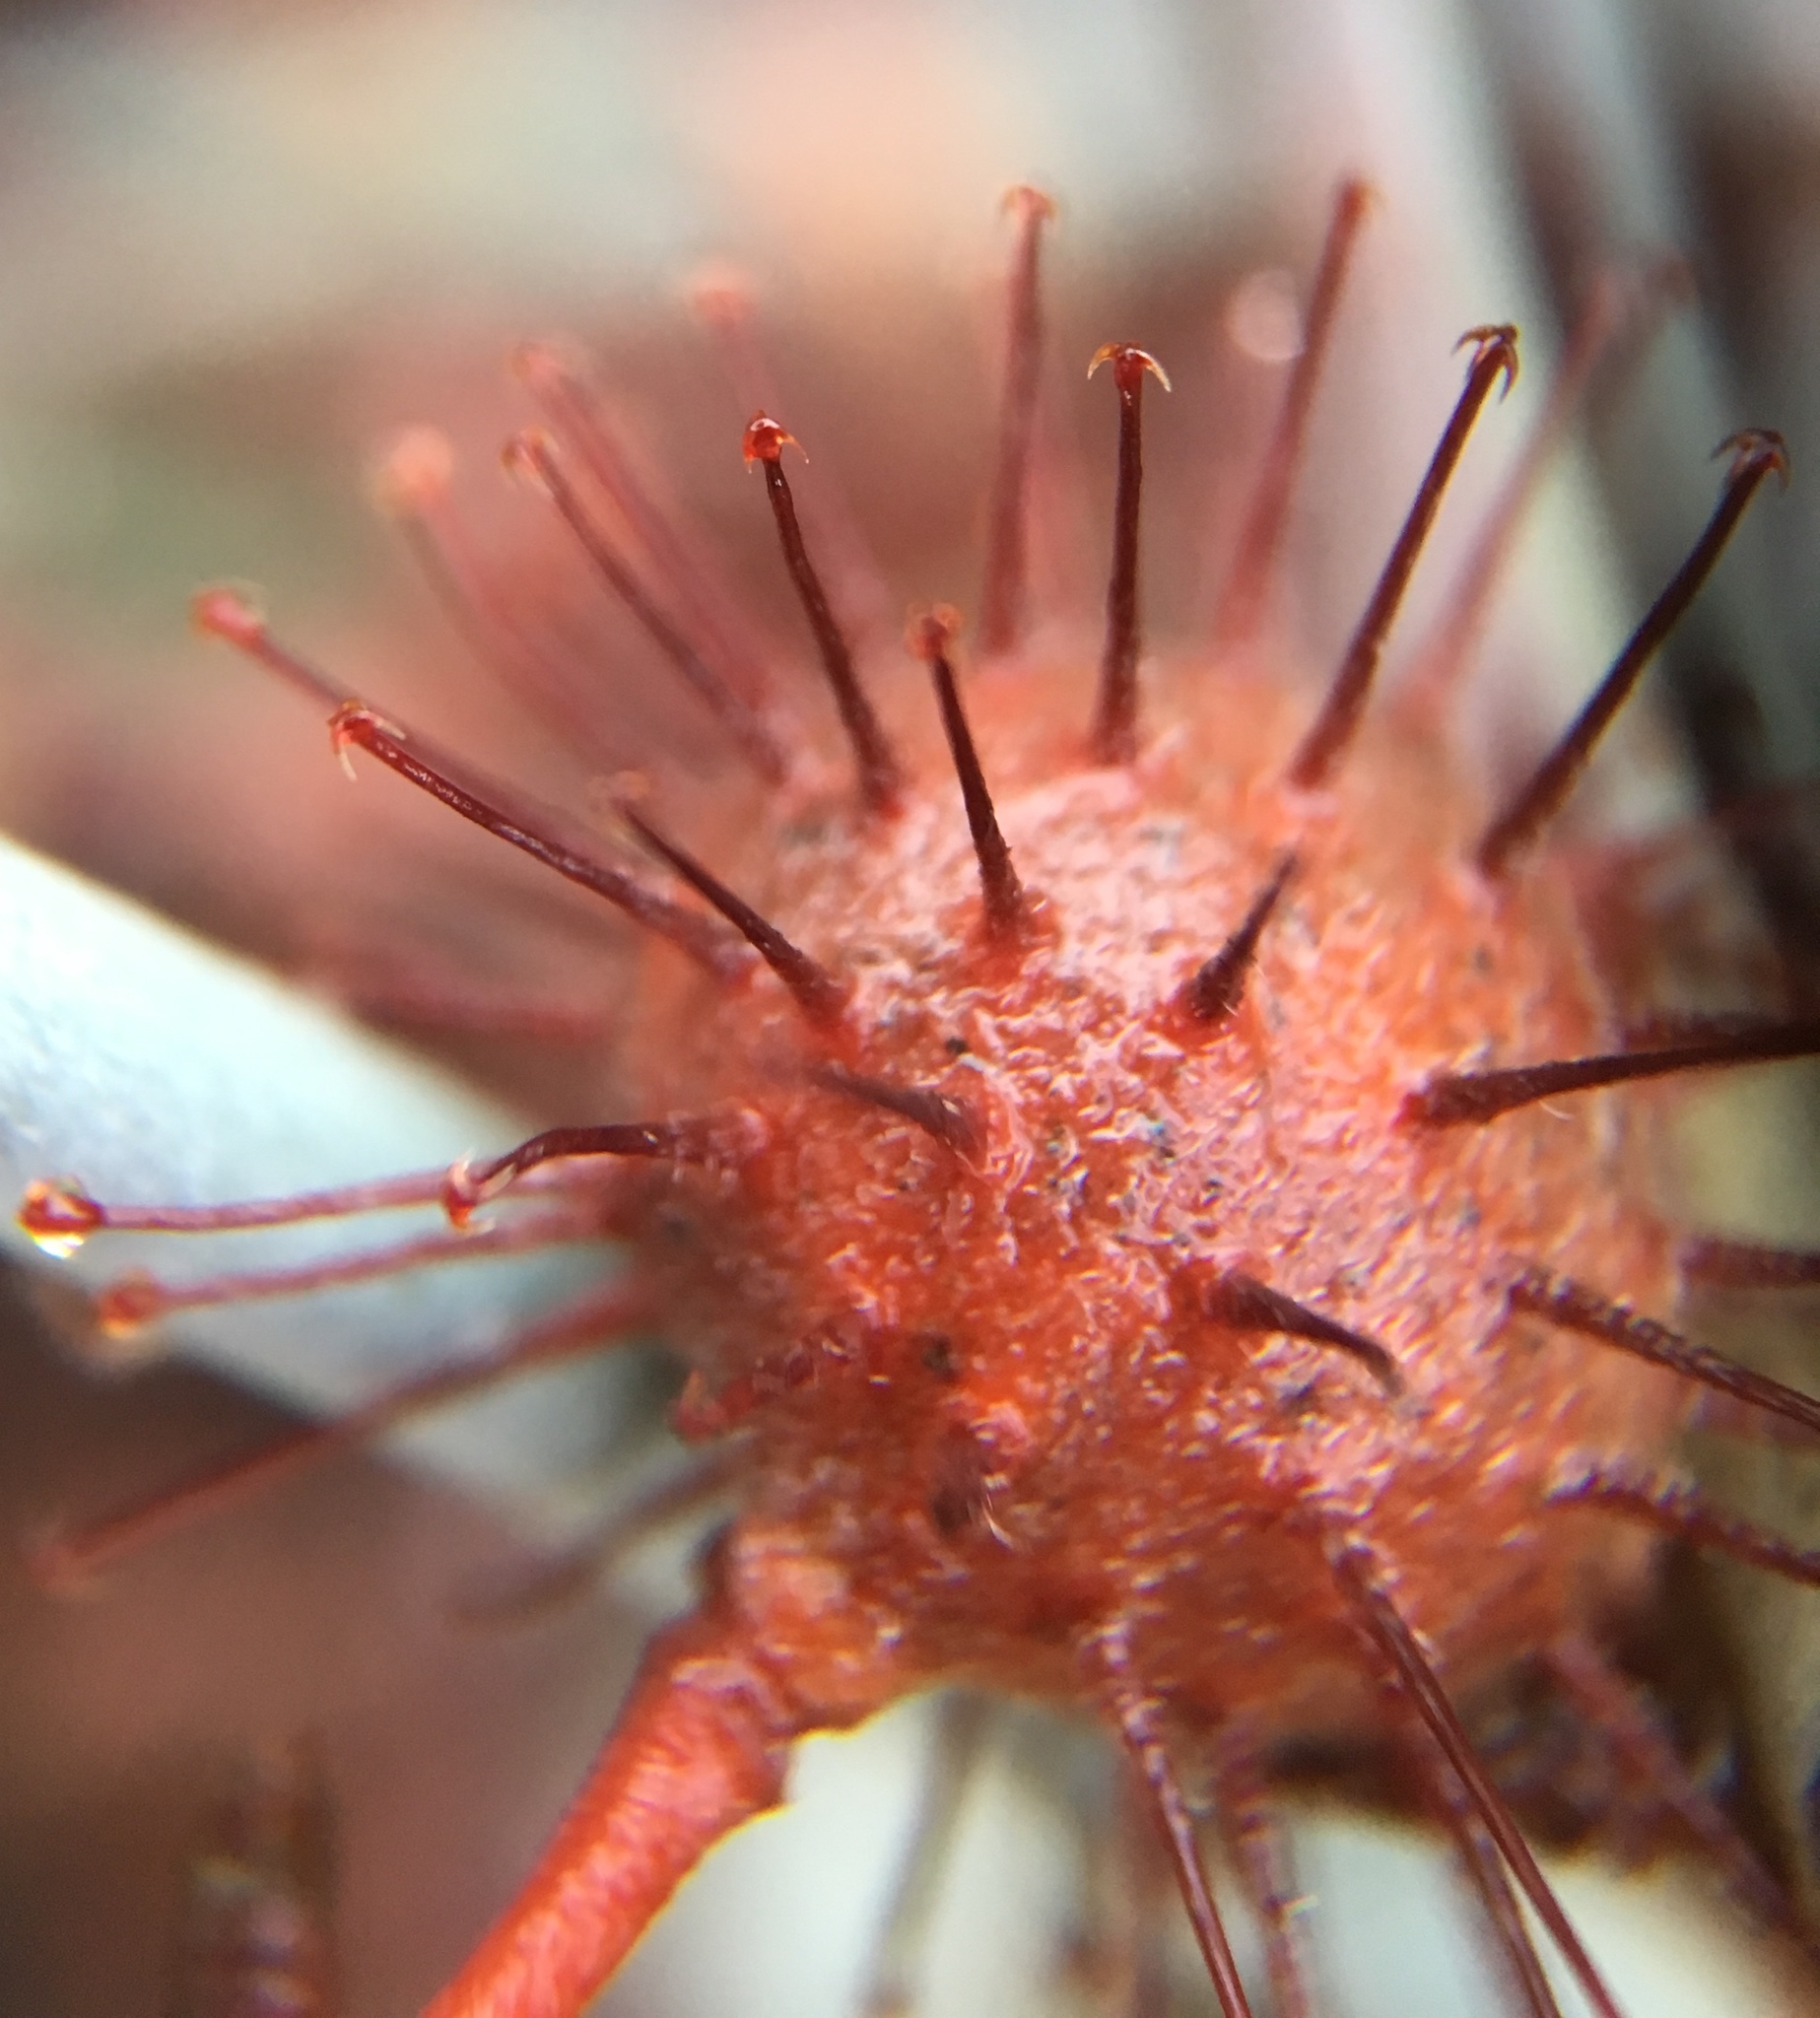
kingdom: Plantae
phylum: Tracheophyta
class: Magnoliopsida
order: Zygophyllales
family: Krameriaceae
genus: Krameria
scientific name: Krameria bicolor
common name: White ratany
